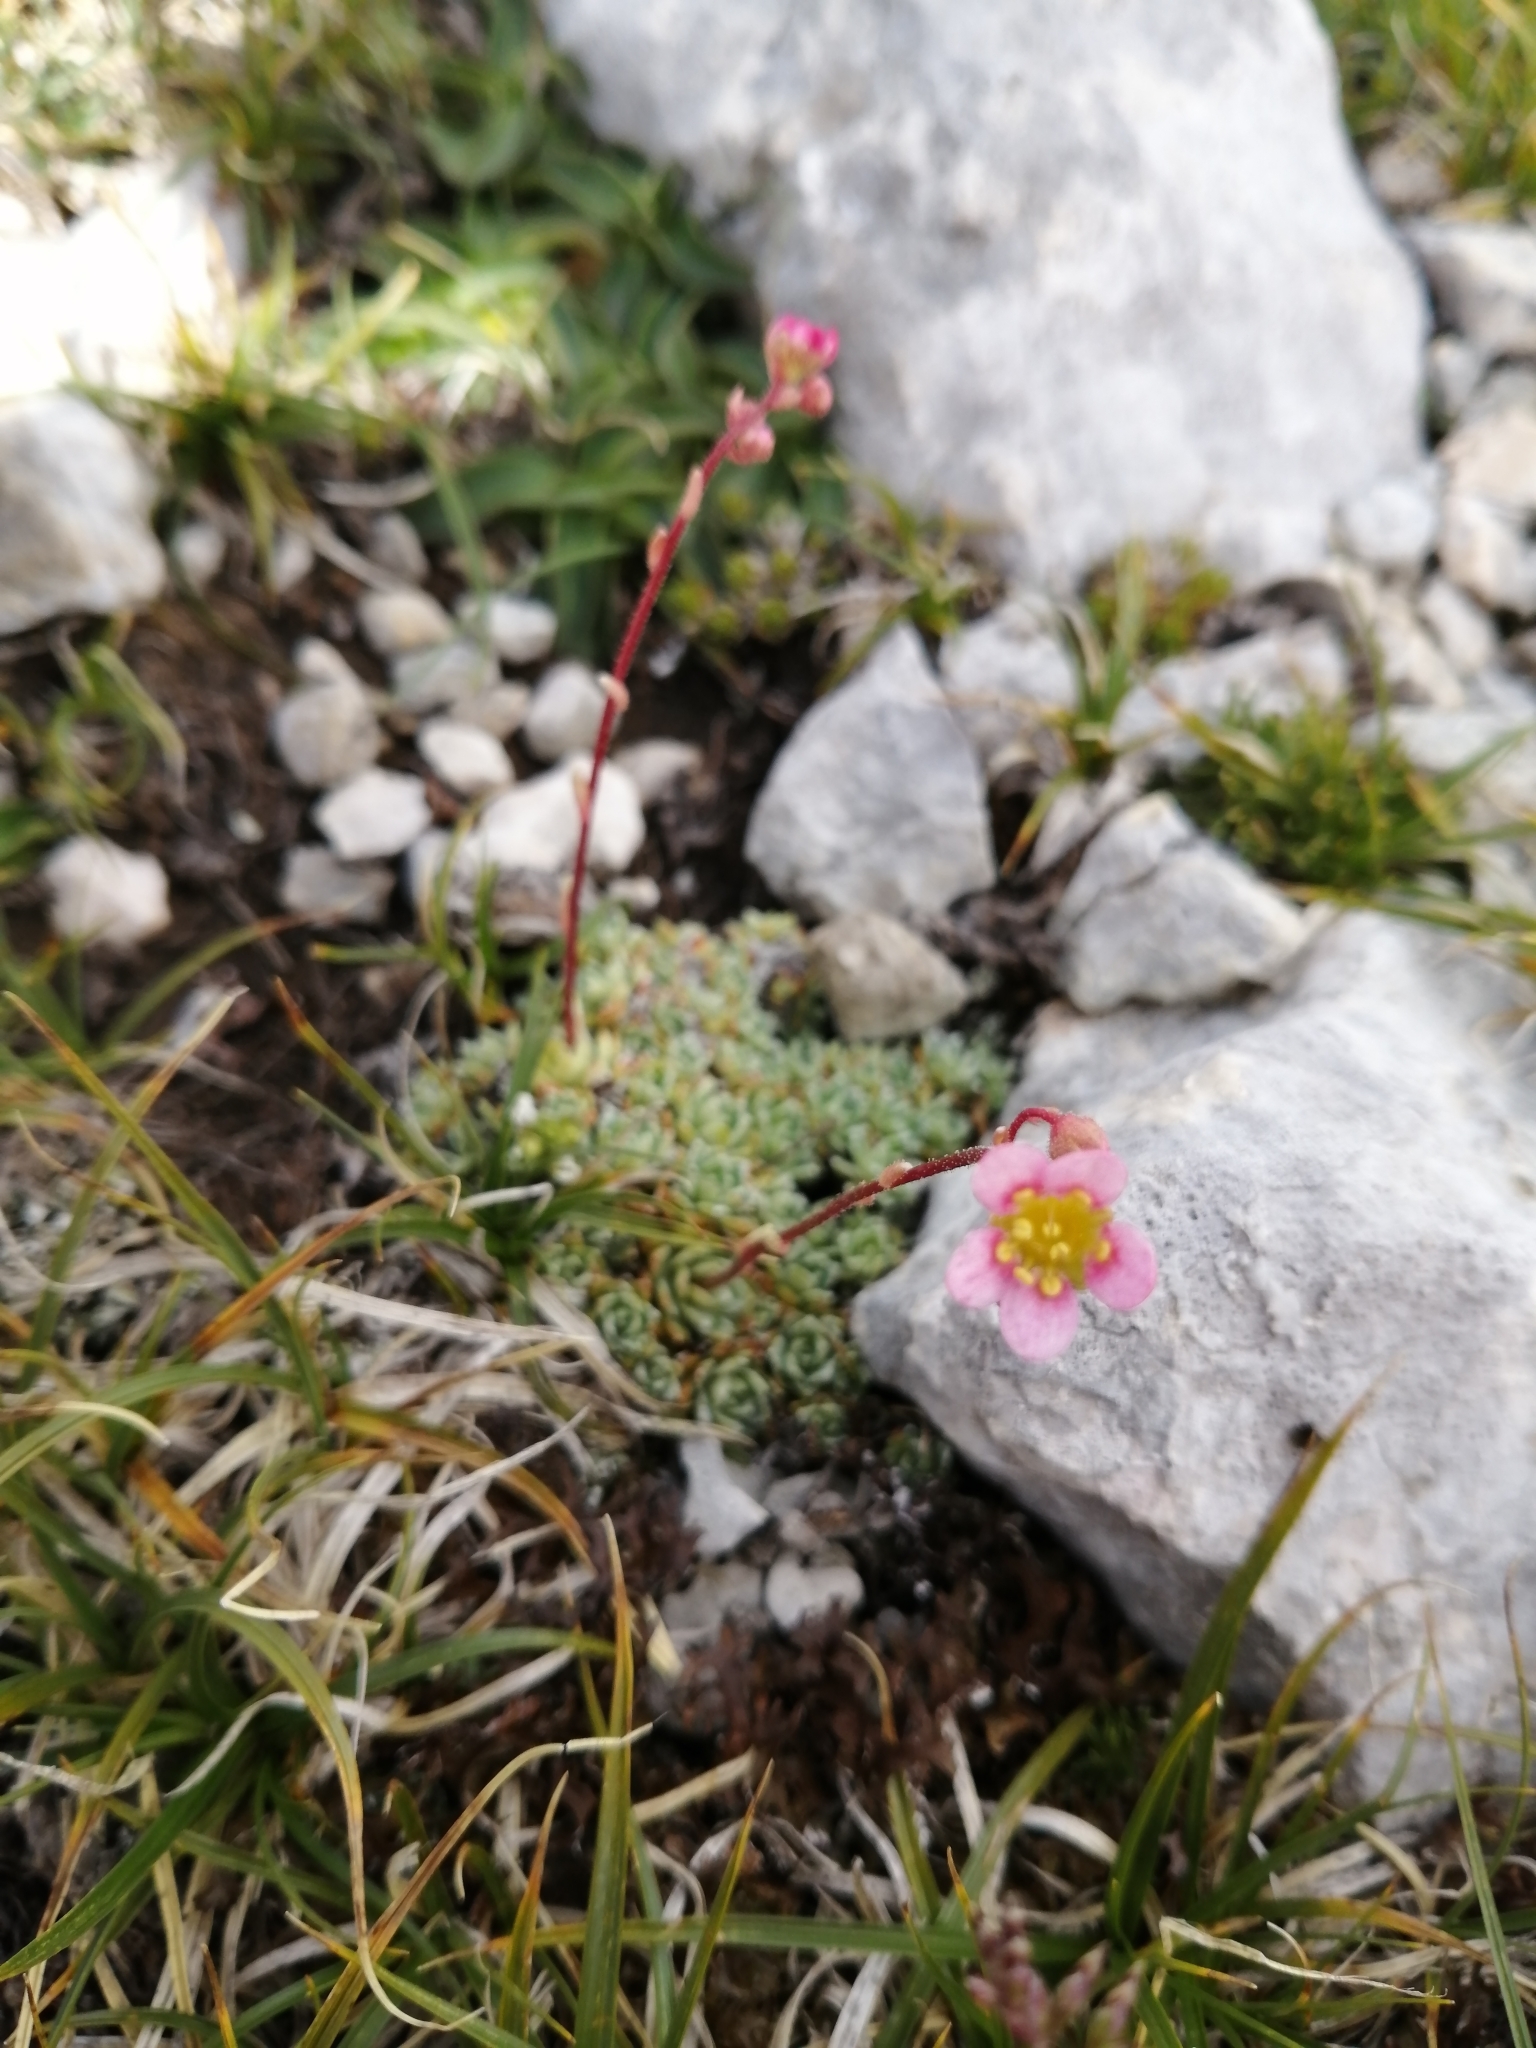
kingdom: Plantae
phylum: Tracheophyta
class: Magnoliopsida
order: Saxifragales
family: Saxifragaceae
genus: Saxifraga
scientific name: Saxifraga paniculata
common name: Livelong saxifrage
